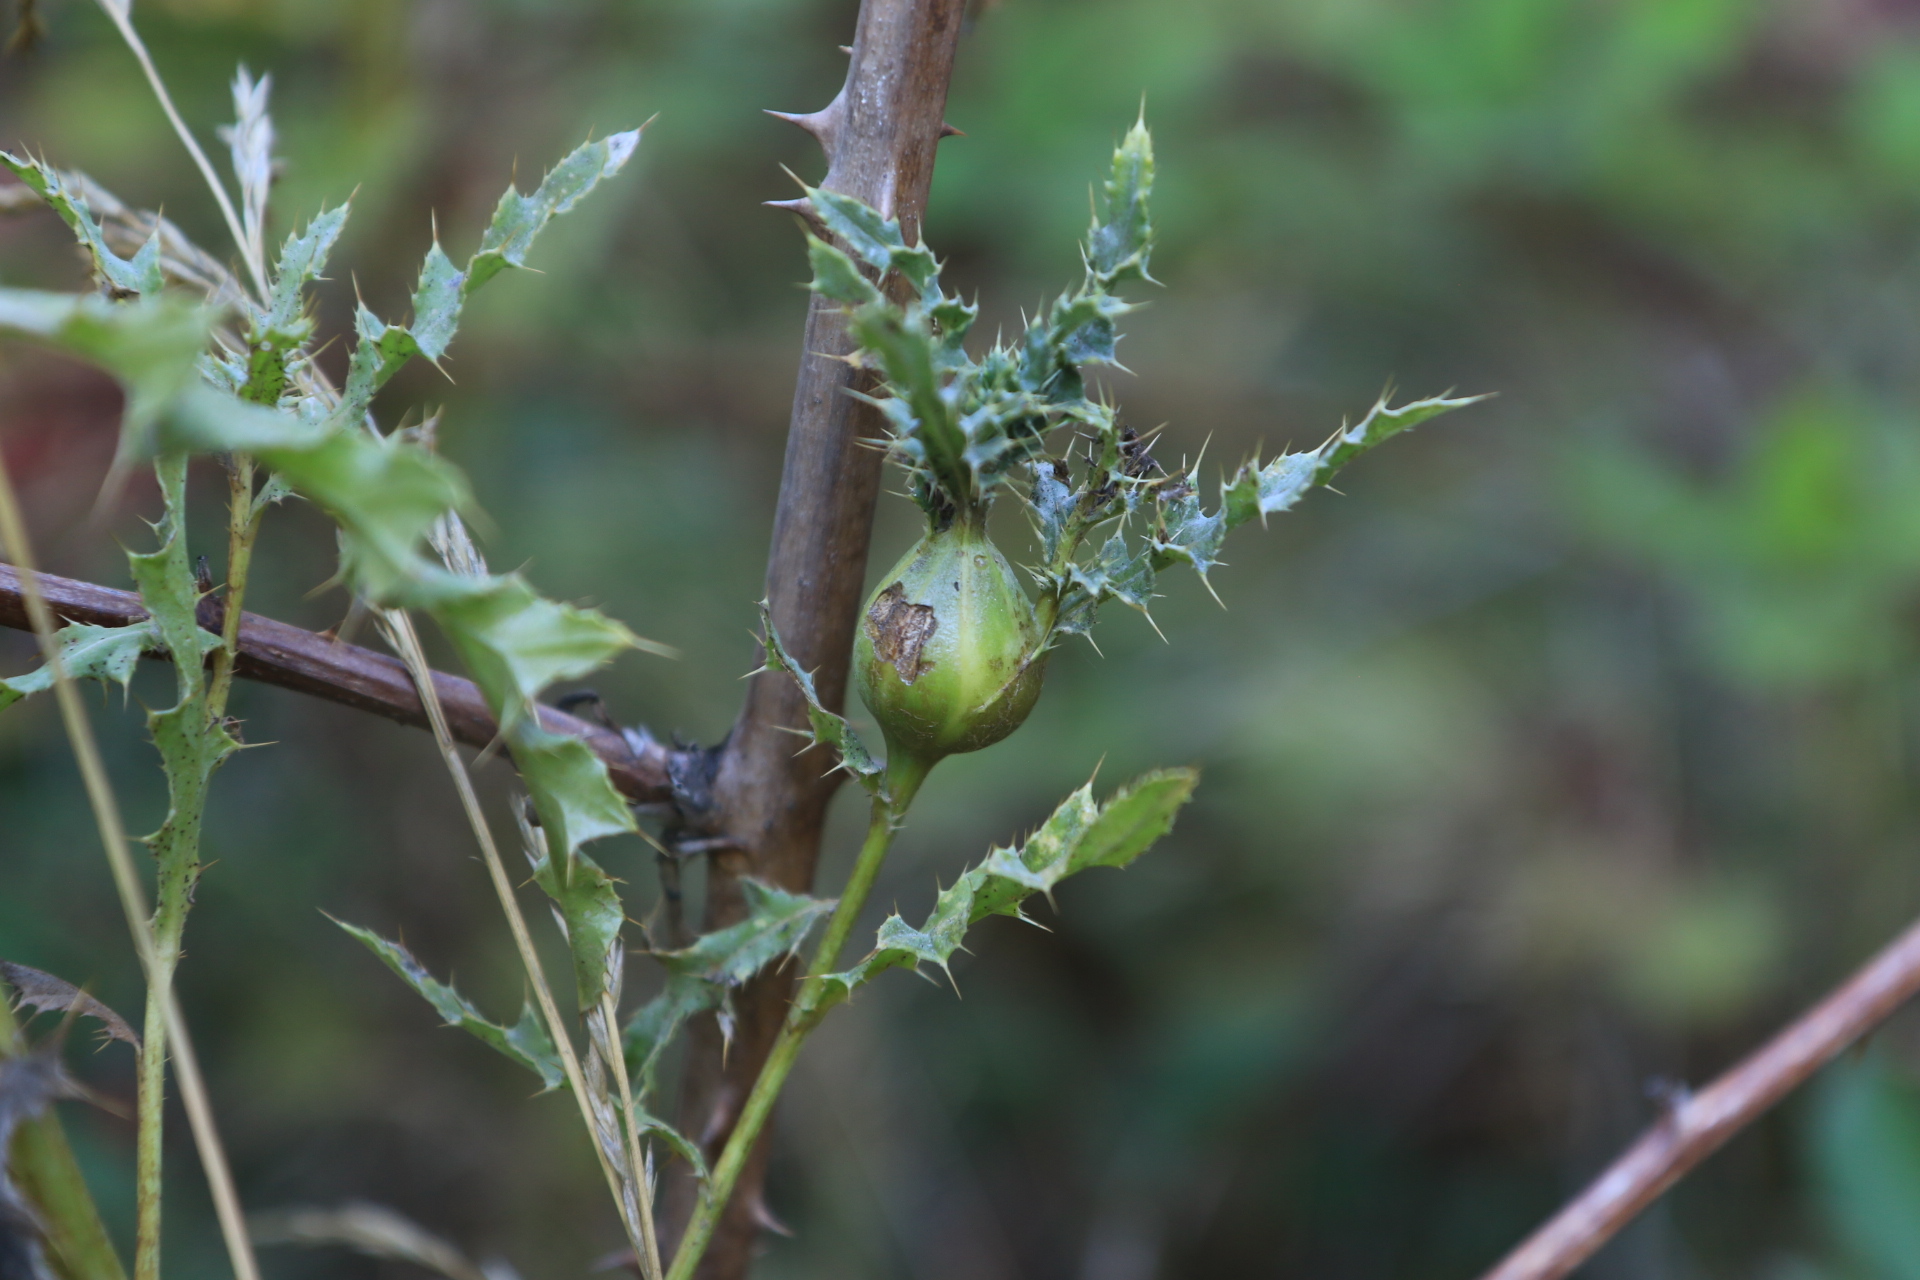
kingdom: Plantae
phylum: Tracheophyta
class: Magnoliopsida
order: Asterales
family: Asteraceae
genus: Cirsium
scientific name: Cirsium arvense
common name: Creeping thistle
